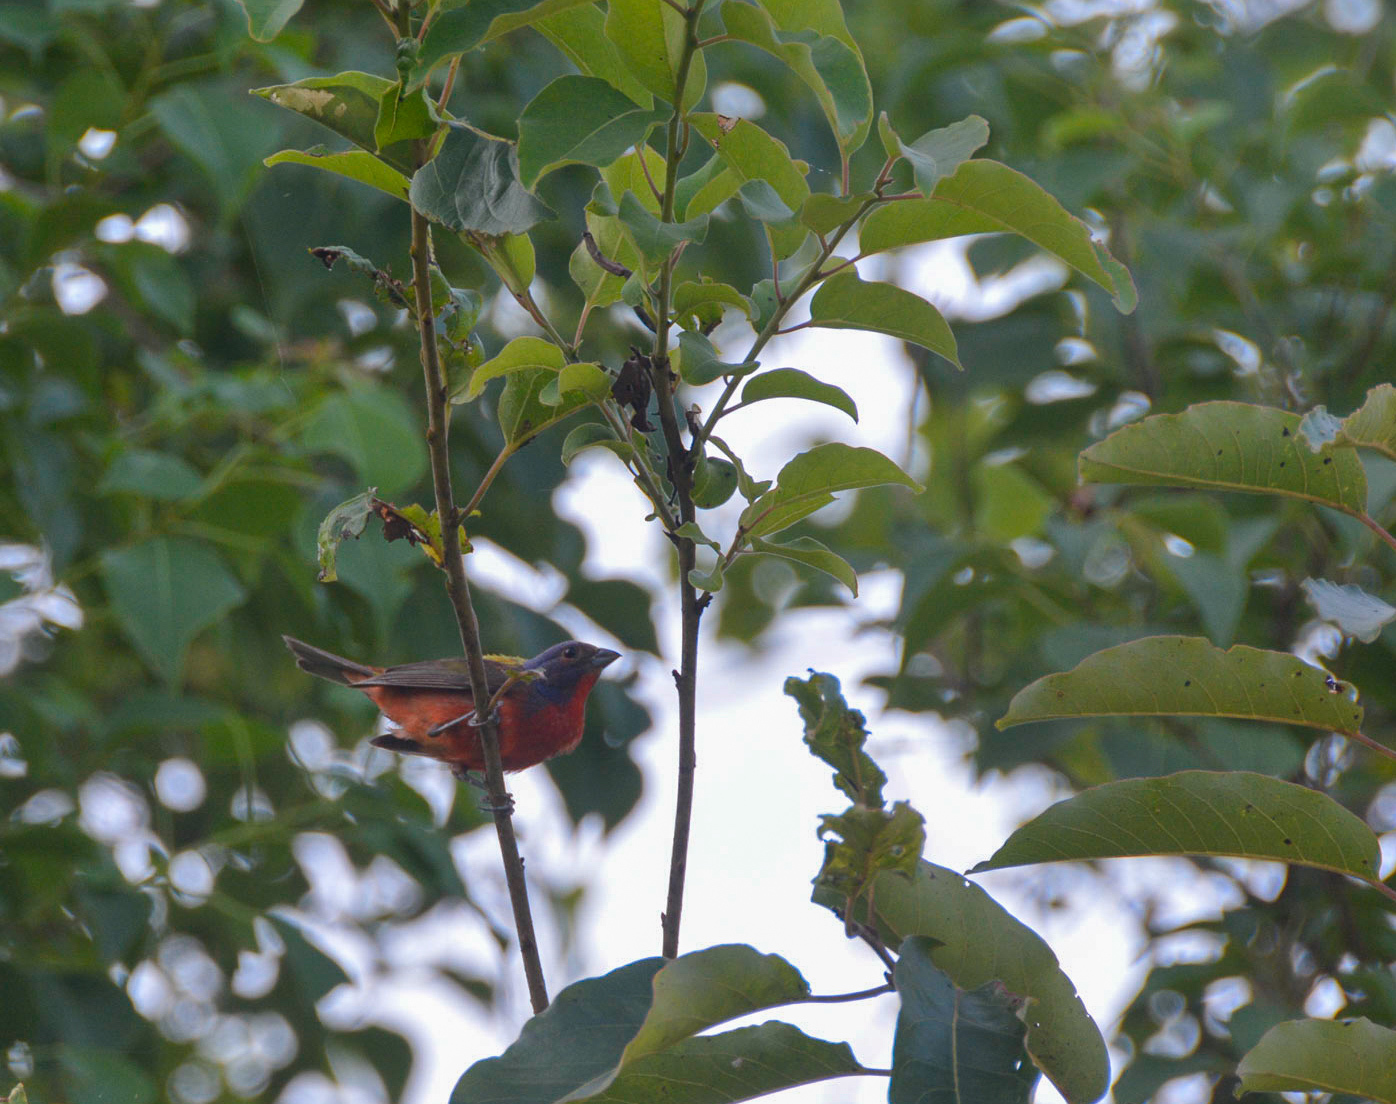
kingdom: Animalia
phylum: Chordata
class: Aves
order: Passeriformes
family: Cardinalidae
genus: Passerina
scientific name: Passerina ciris
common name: Painted bunting
